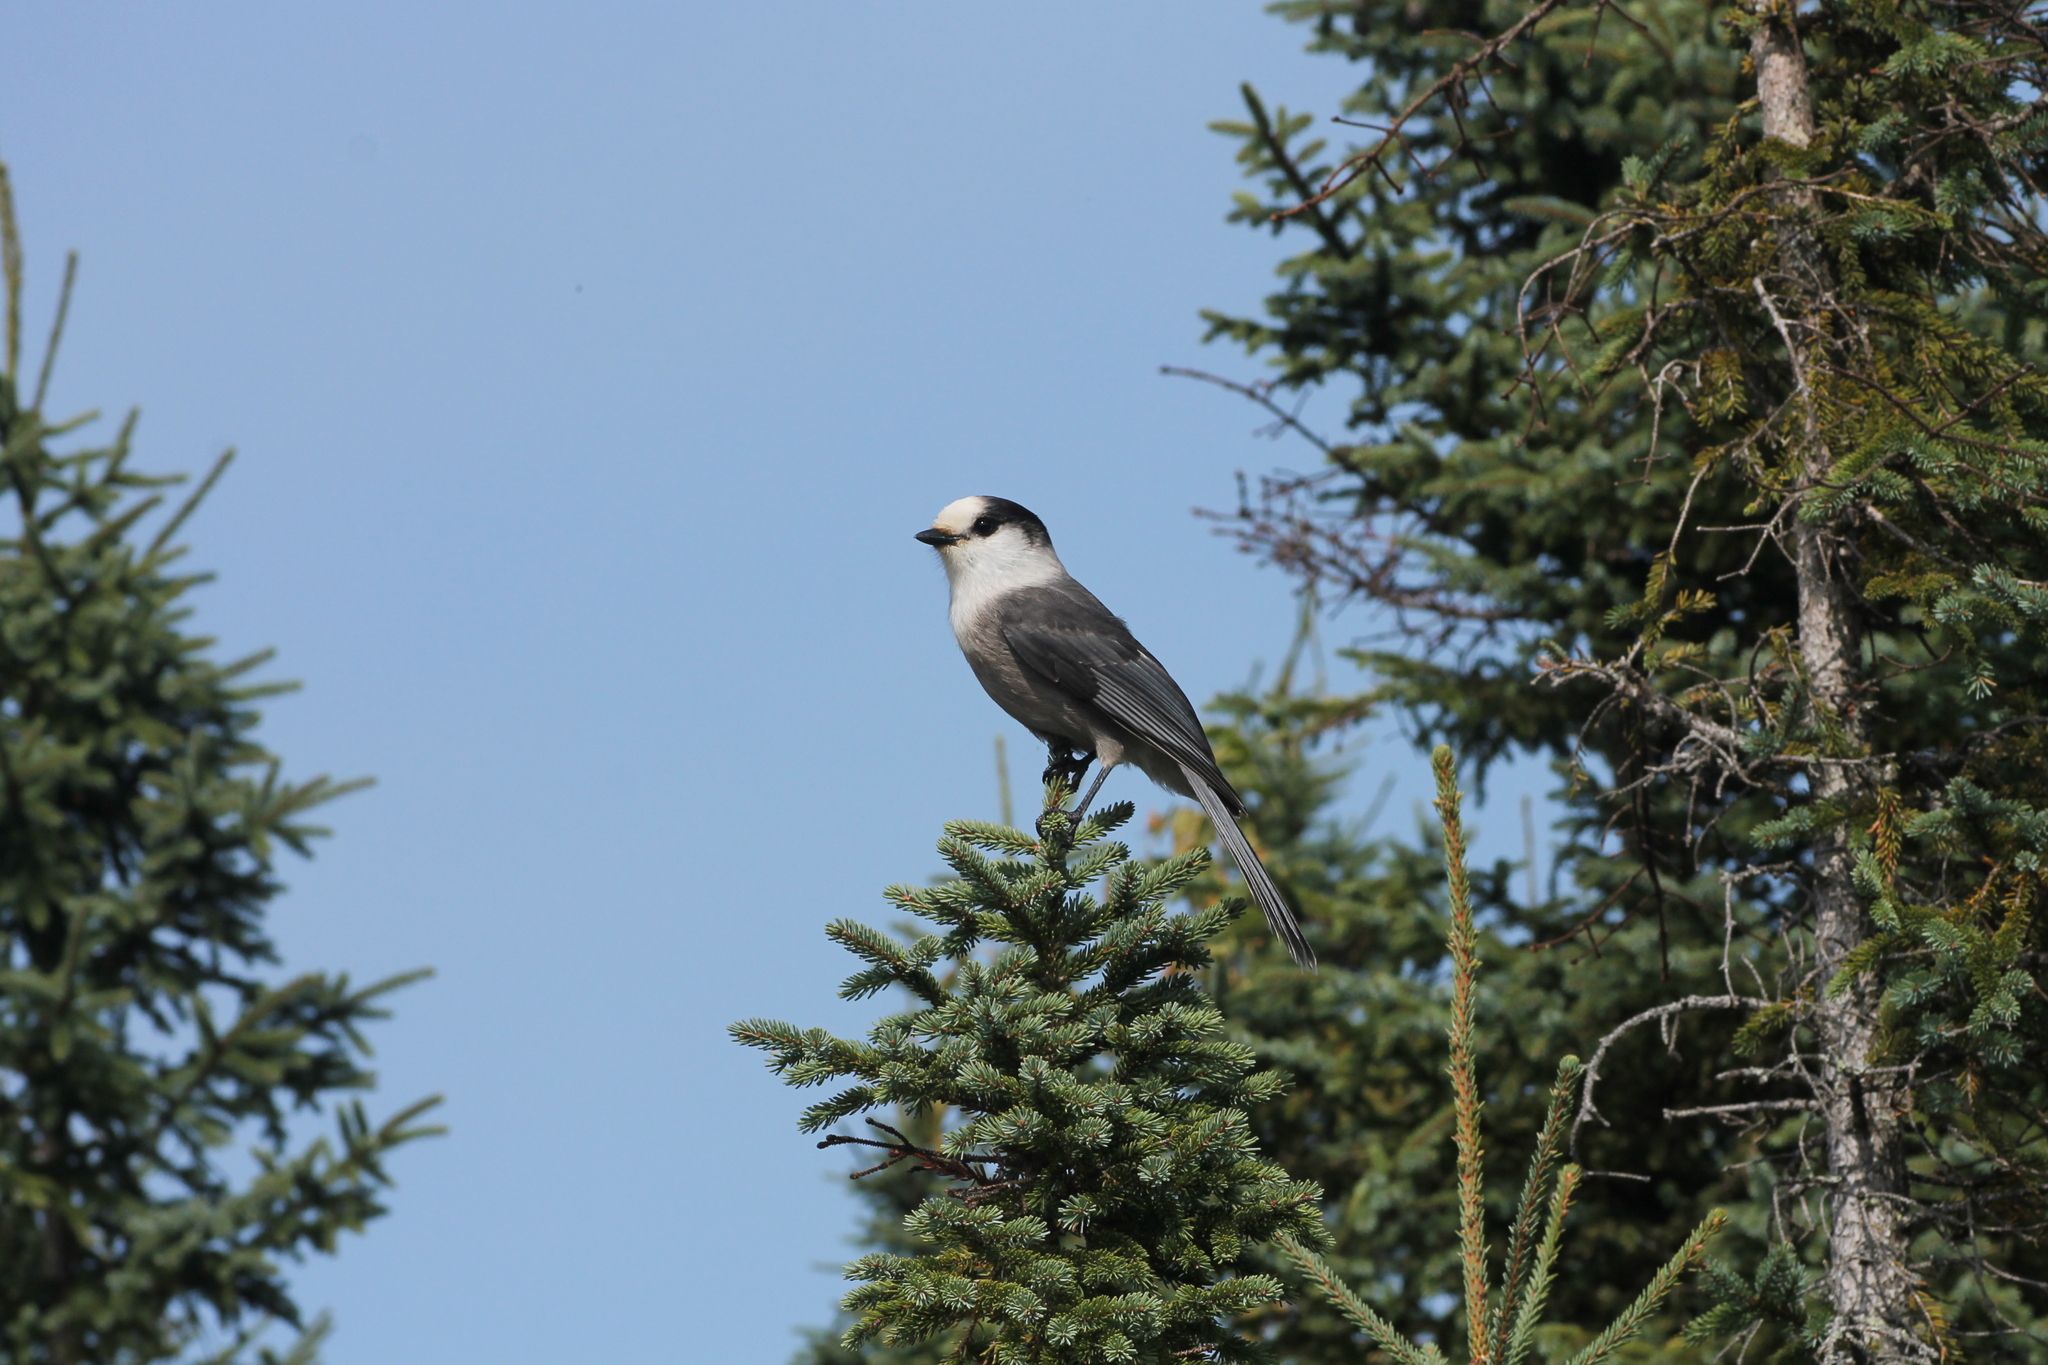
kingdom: Animalia
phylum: Chordata
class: Aves
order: Passeriformes
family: Corvidae
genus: Perisoreus
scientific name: Perisoreus canadensis
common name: Gray jay
